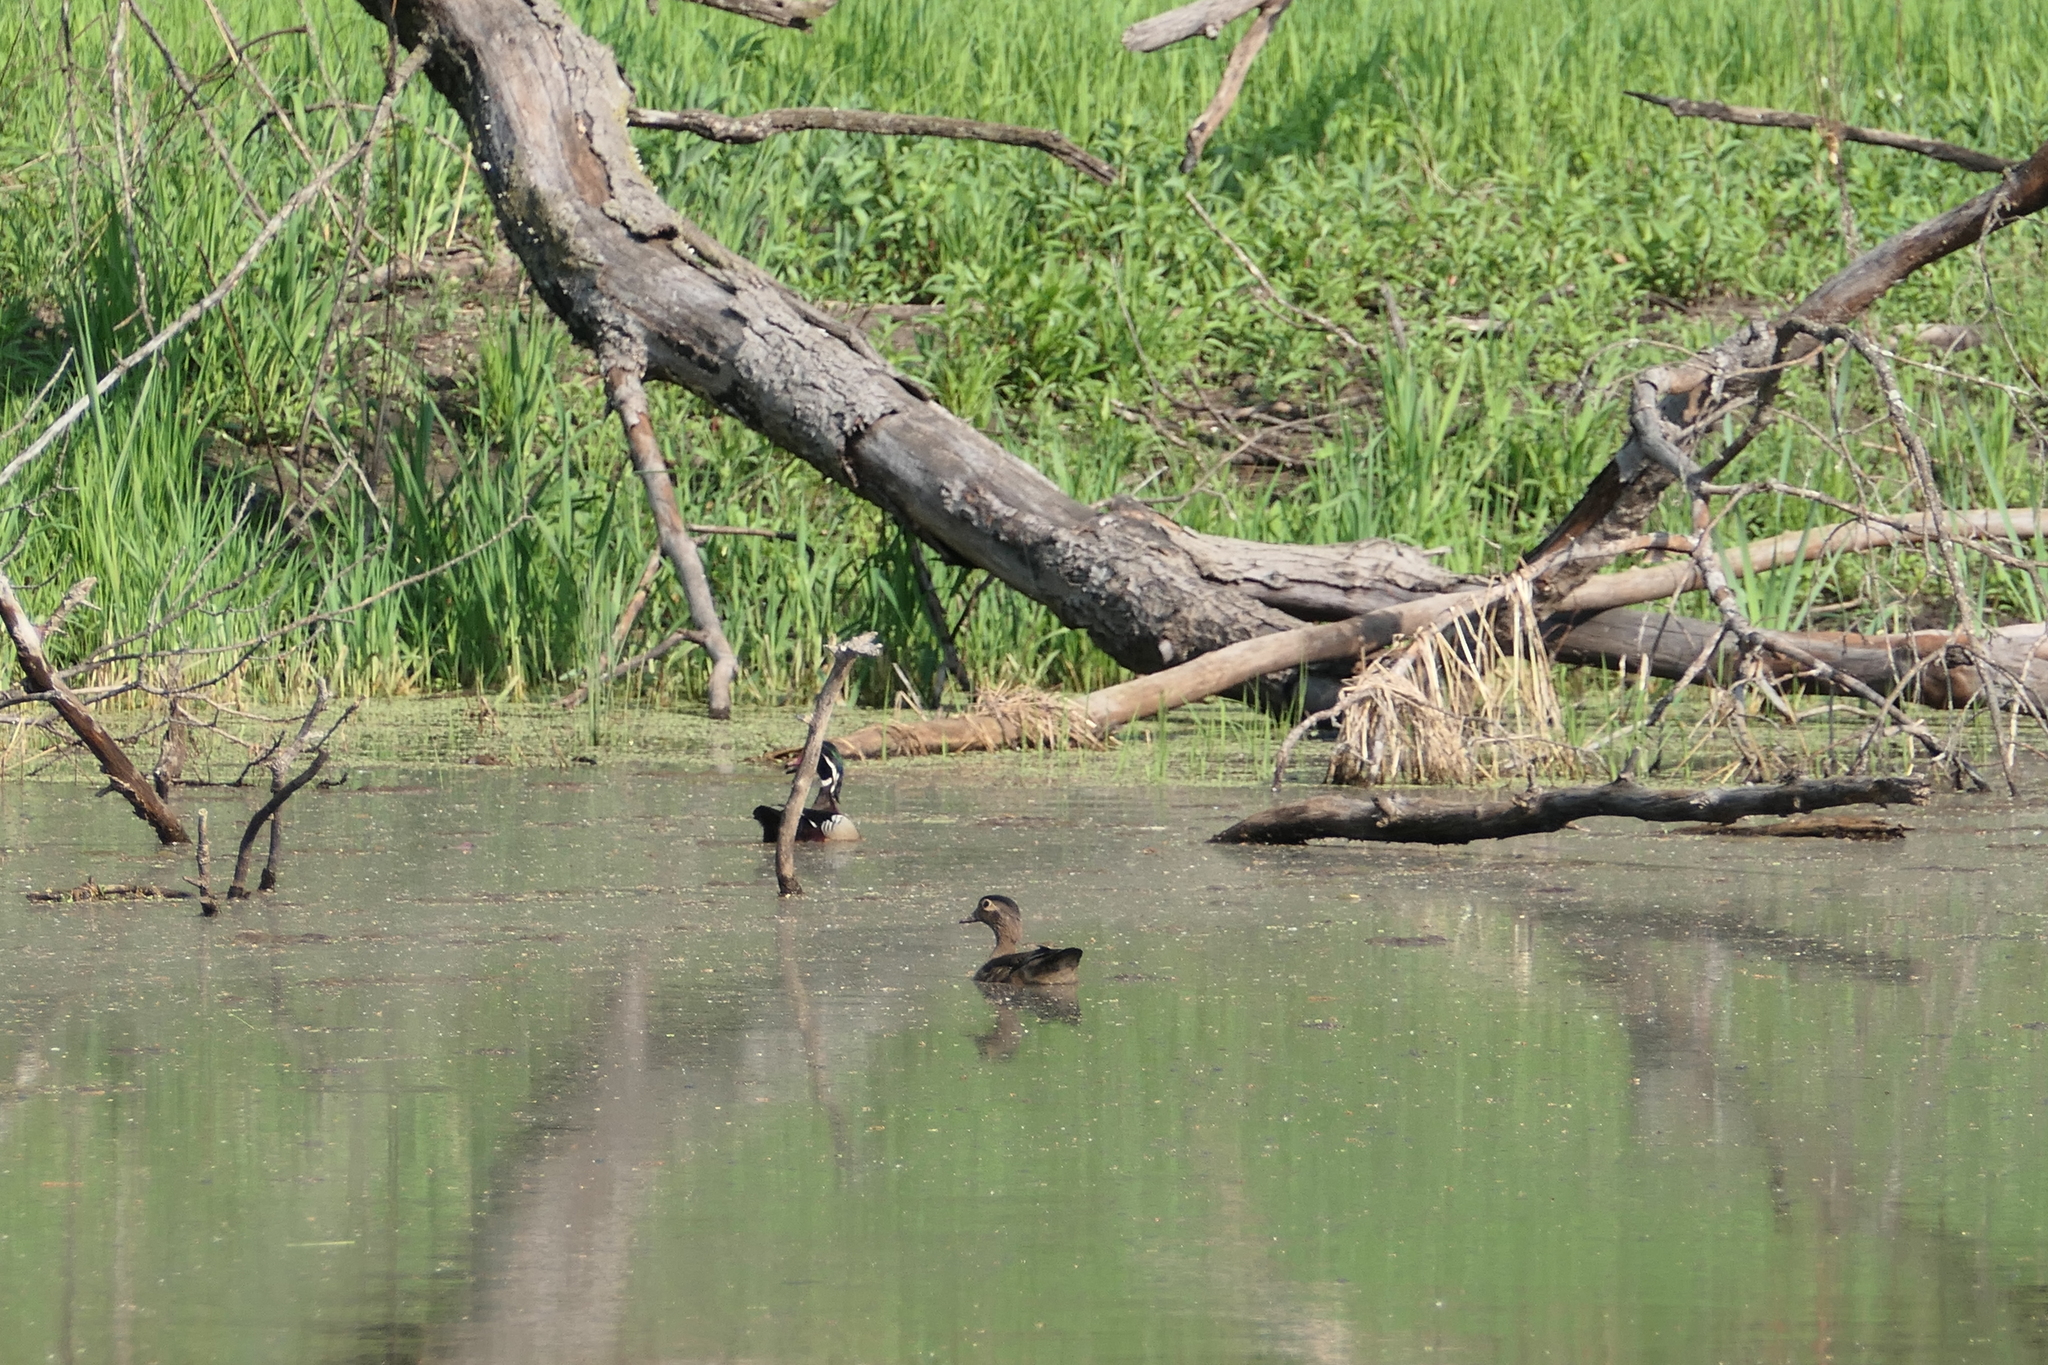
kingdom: Animalia
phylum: Chordata
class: Aves
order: Anseriformes
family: Anatidae
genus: Aix
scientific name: Aix sponsa
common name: Wood duck
